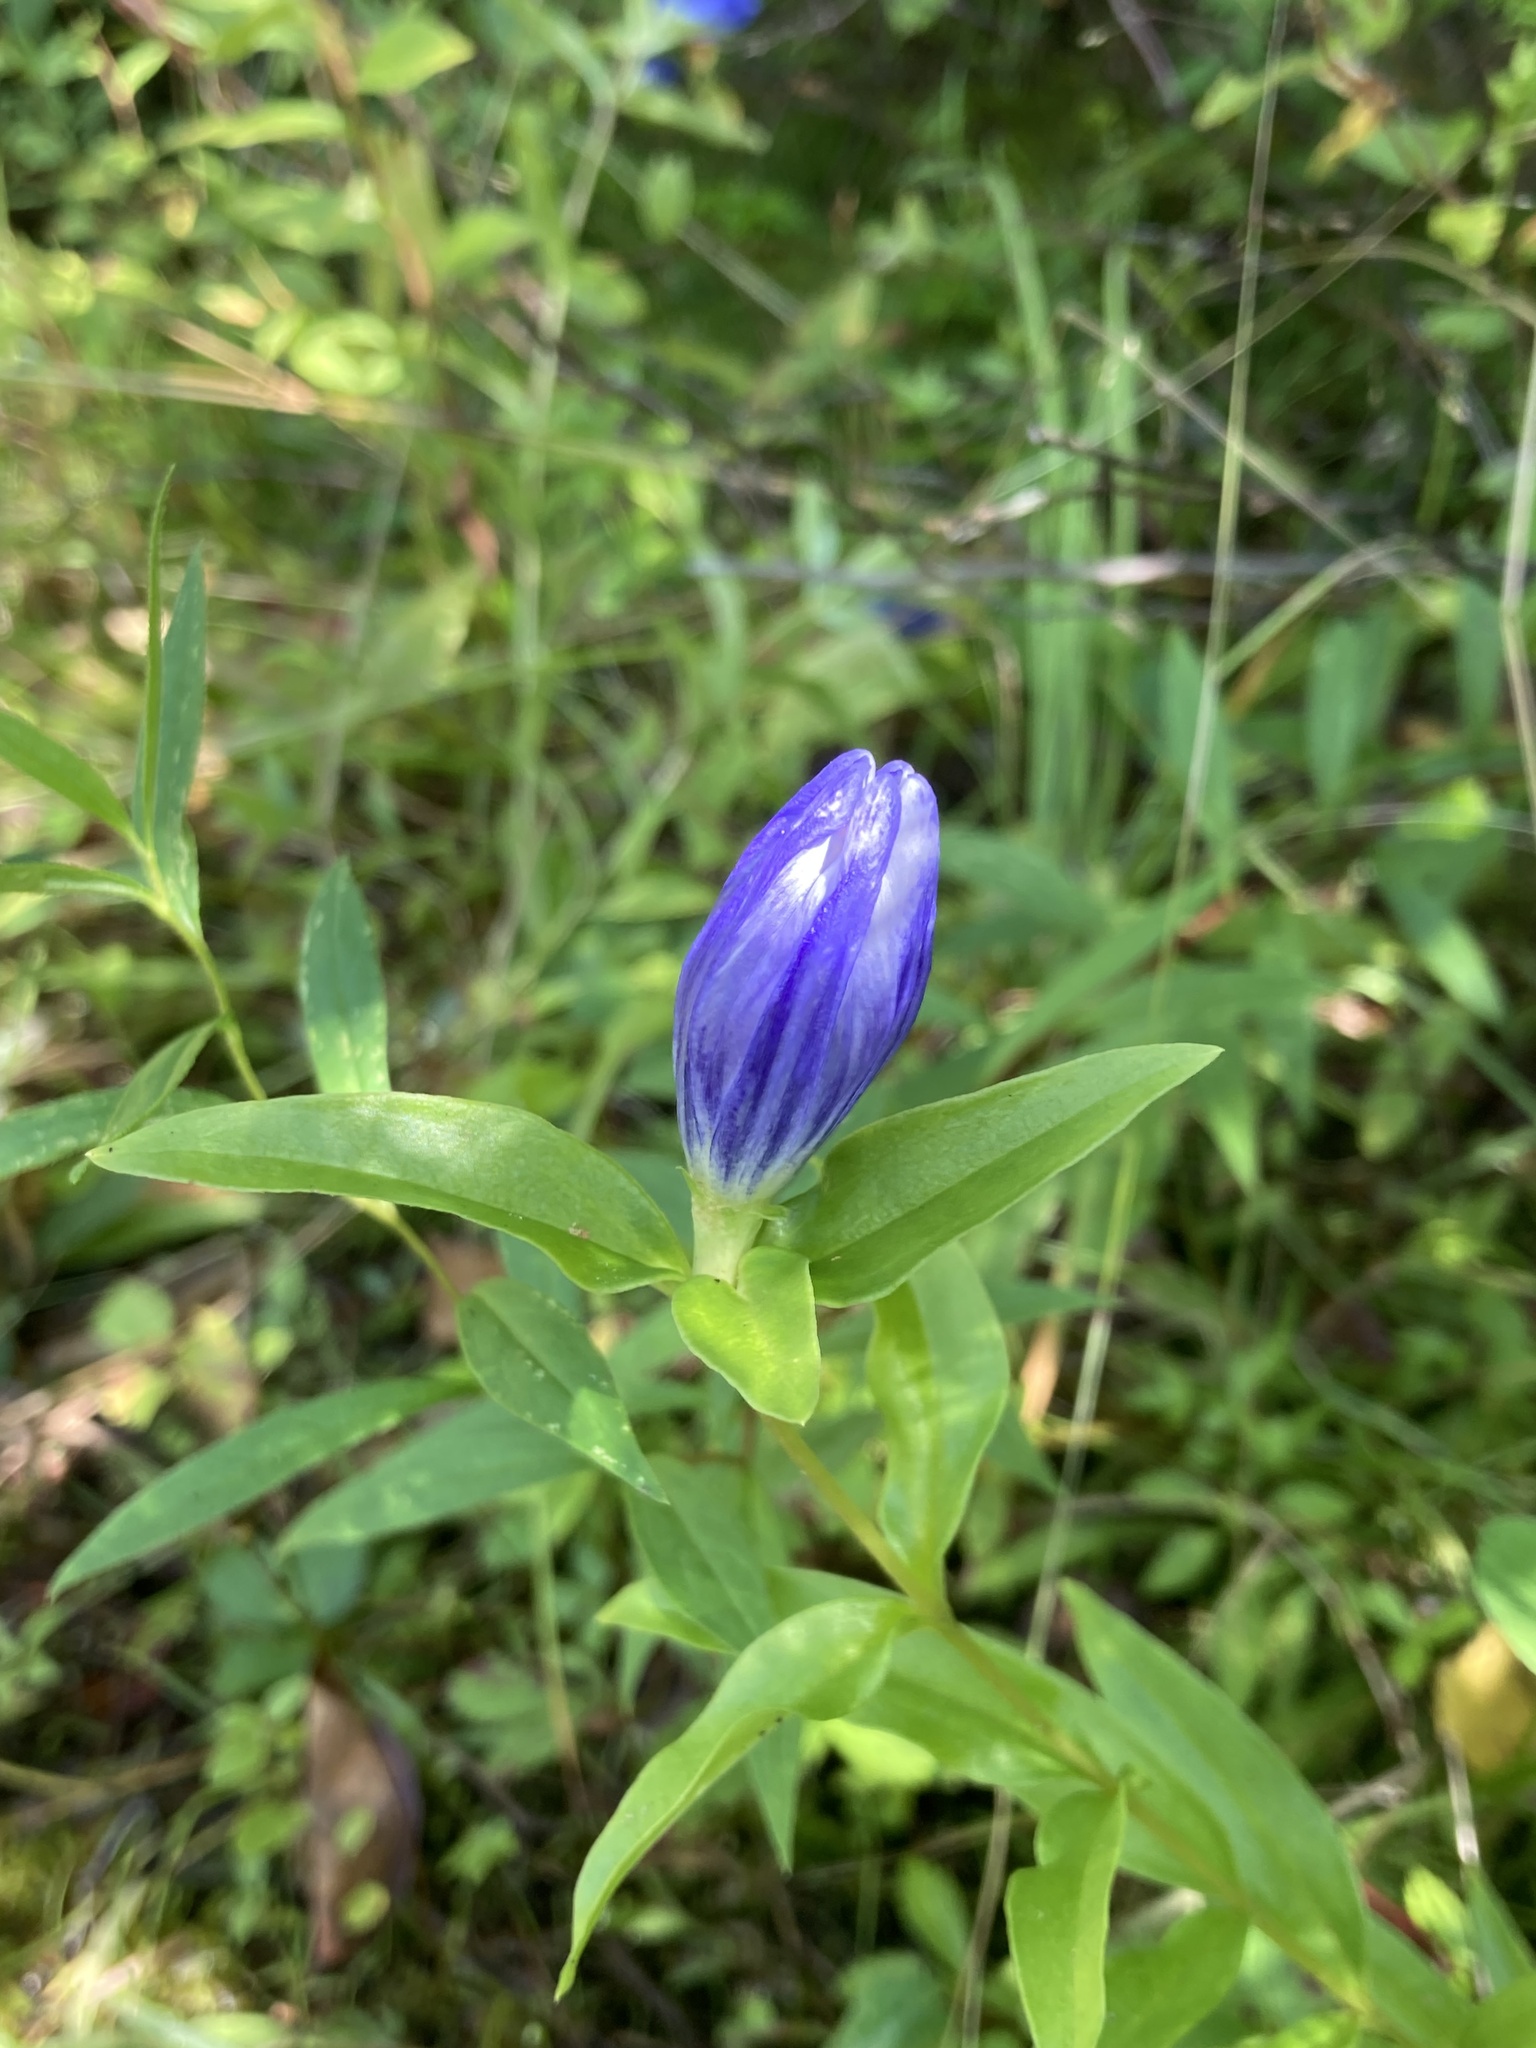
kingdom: Plantae
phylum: Tracheophyta
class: Magnoliopsida
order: Gentianales
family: Gentianaceae
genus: Gentiana
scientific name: Gentiana linearis
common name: Bastard gentian
